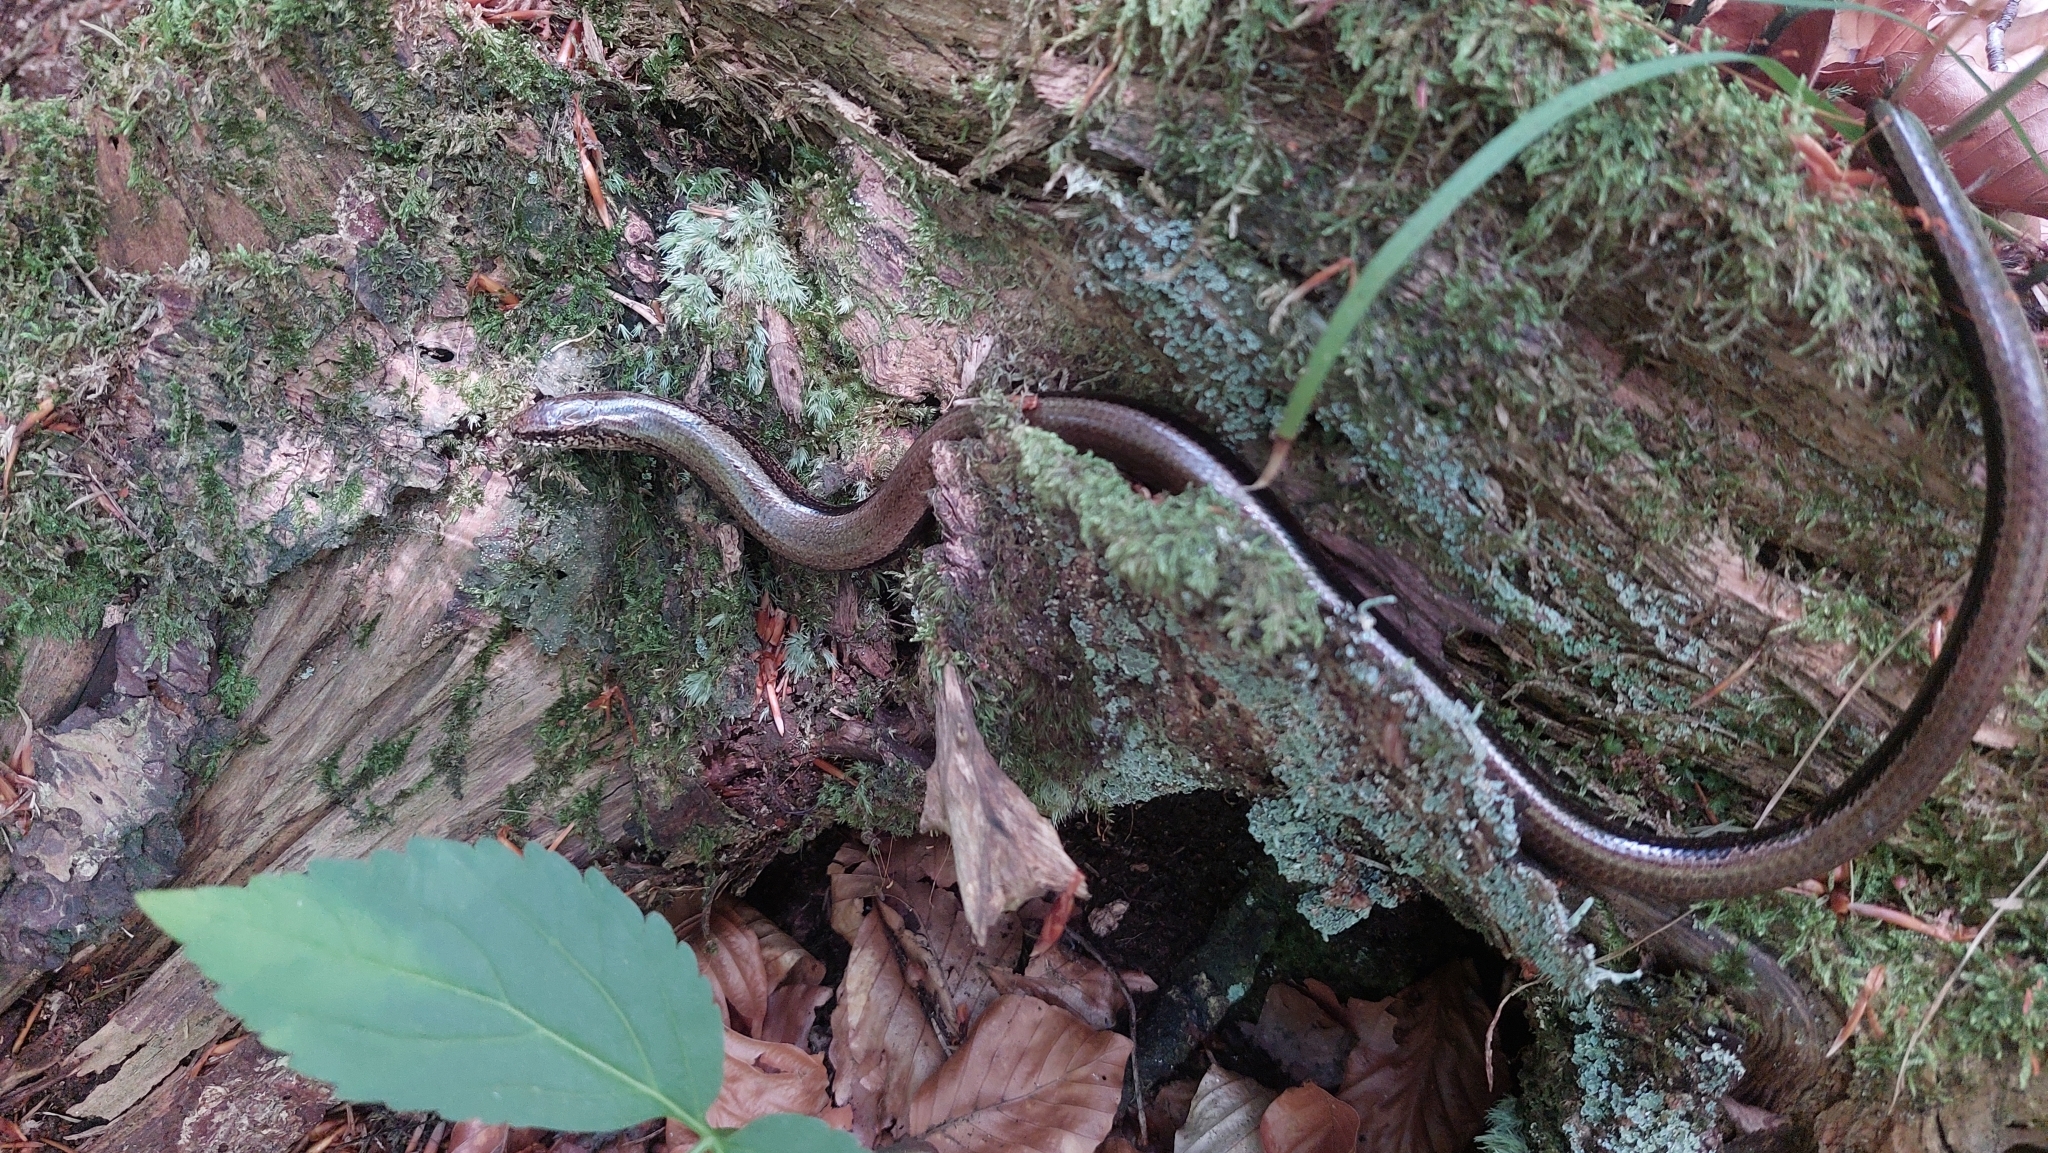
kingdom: Animalia
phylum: Chordata
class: Squamata
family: Anguidae
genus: Anguis
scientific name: Anguis fragilis
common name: Slow worm
